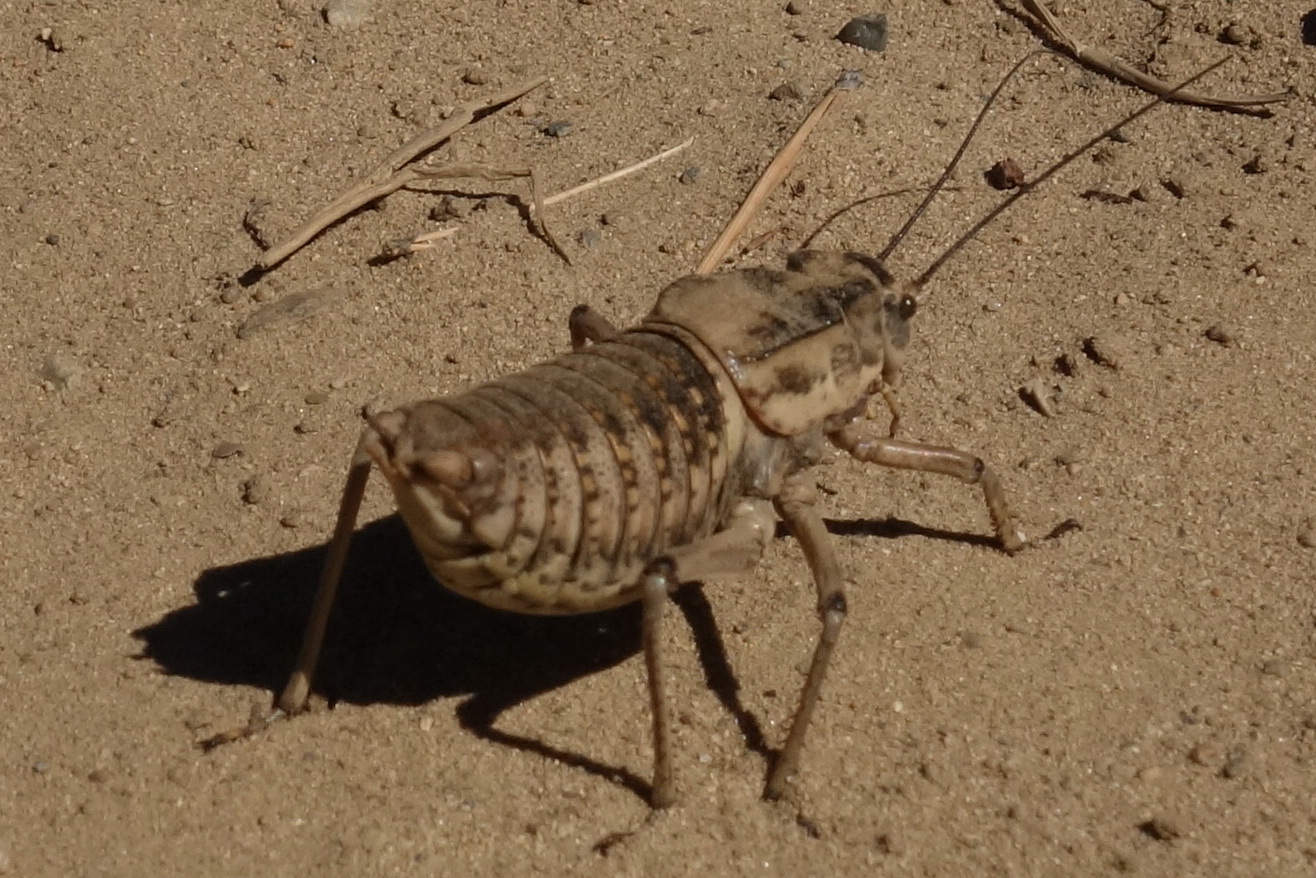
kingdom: Animalia
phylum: Arthropoda
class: Insecta
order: Orthoptera
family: Tettigoniidae
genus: Deracantha
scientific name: Deracantha onos
